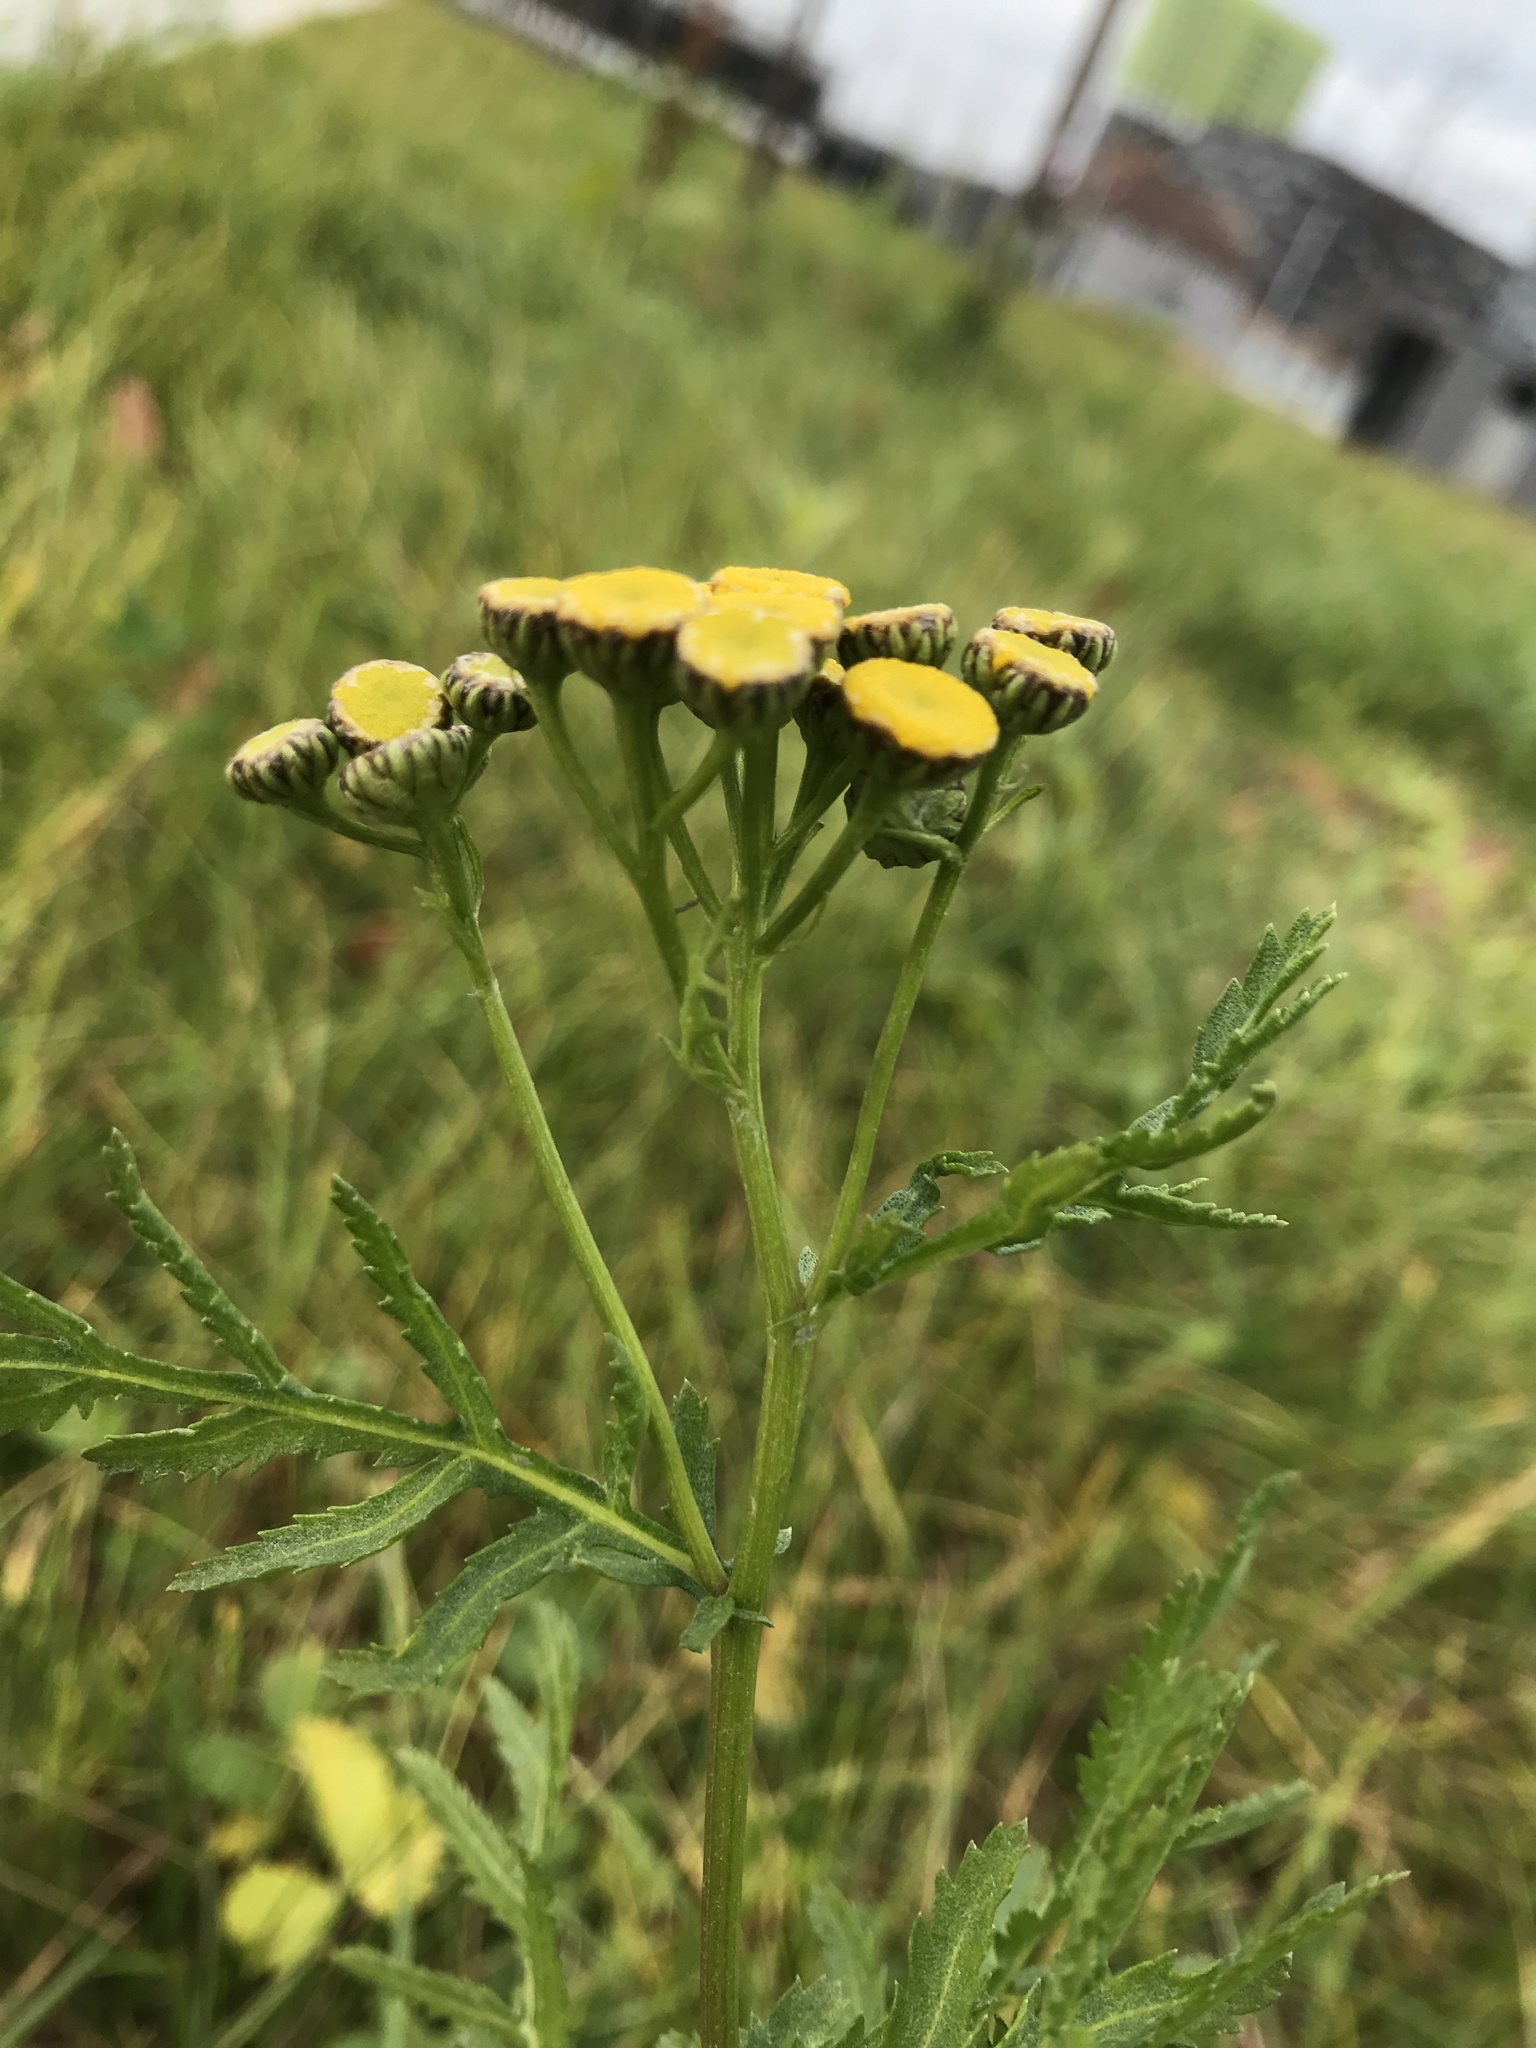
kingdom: Plantae
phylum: Tracheophyta
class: Magnoliopsida
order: Asterales
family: Asteraceae
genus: Tanacetum
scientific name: Tanacetum vulgare
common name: Common tansy
